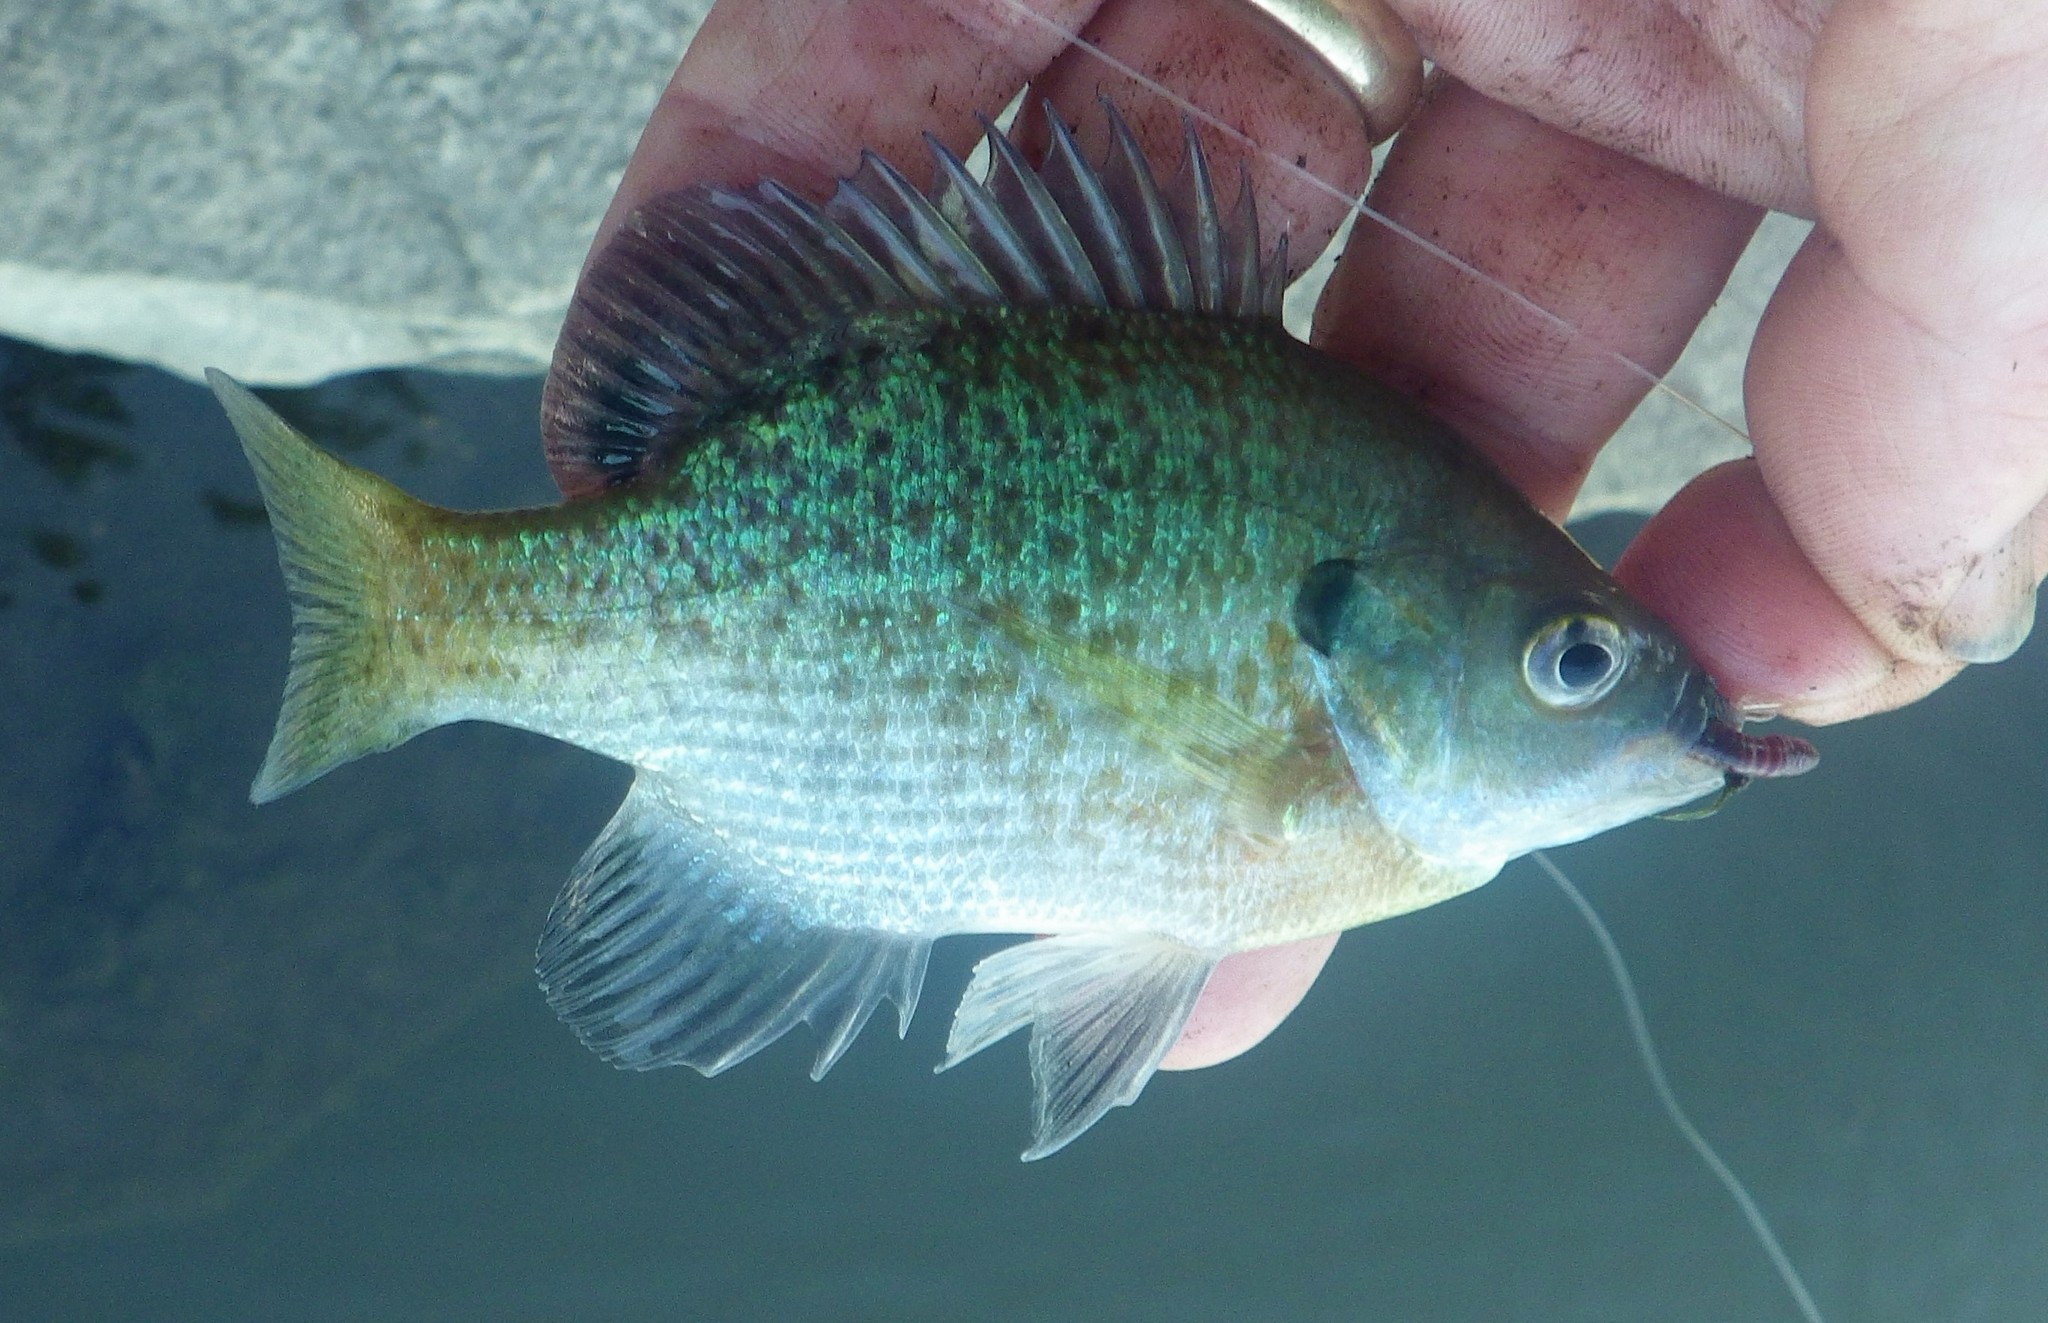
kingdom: Animalia
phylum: Chordata
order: Perciformes
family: Centrarchidae
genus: Lepomis
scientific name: Lepomis macrochirus
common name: Bluegill
